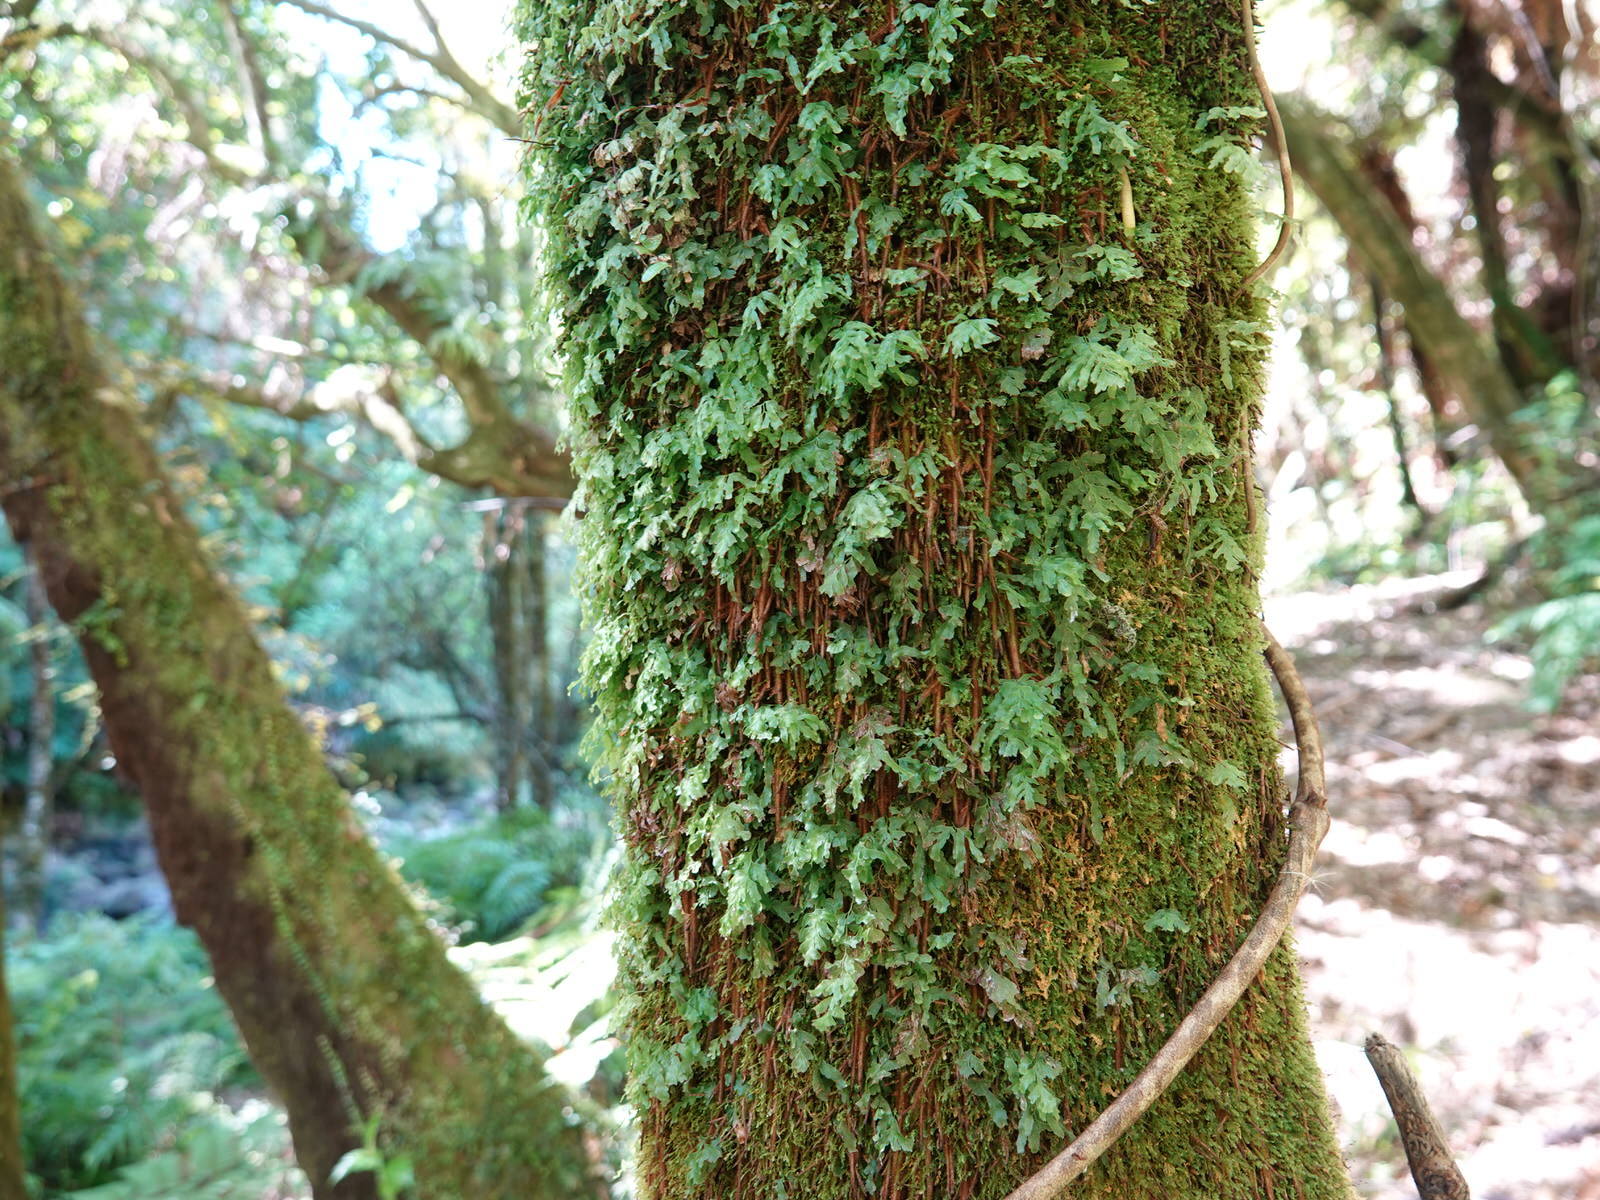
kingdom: Plantae
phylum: Tracheophyta
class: Polypodiopsida
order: Hymenophyllales
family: Hymenophyllaceae
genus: Polyphlebium
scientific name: Polyphlebium venosum
